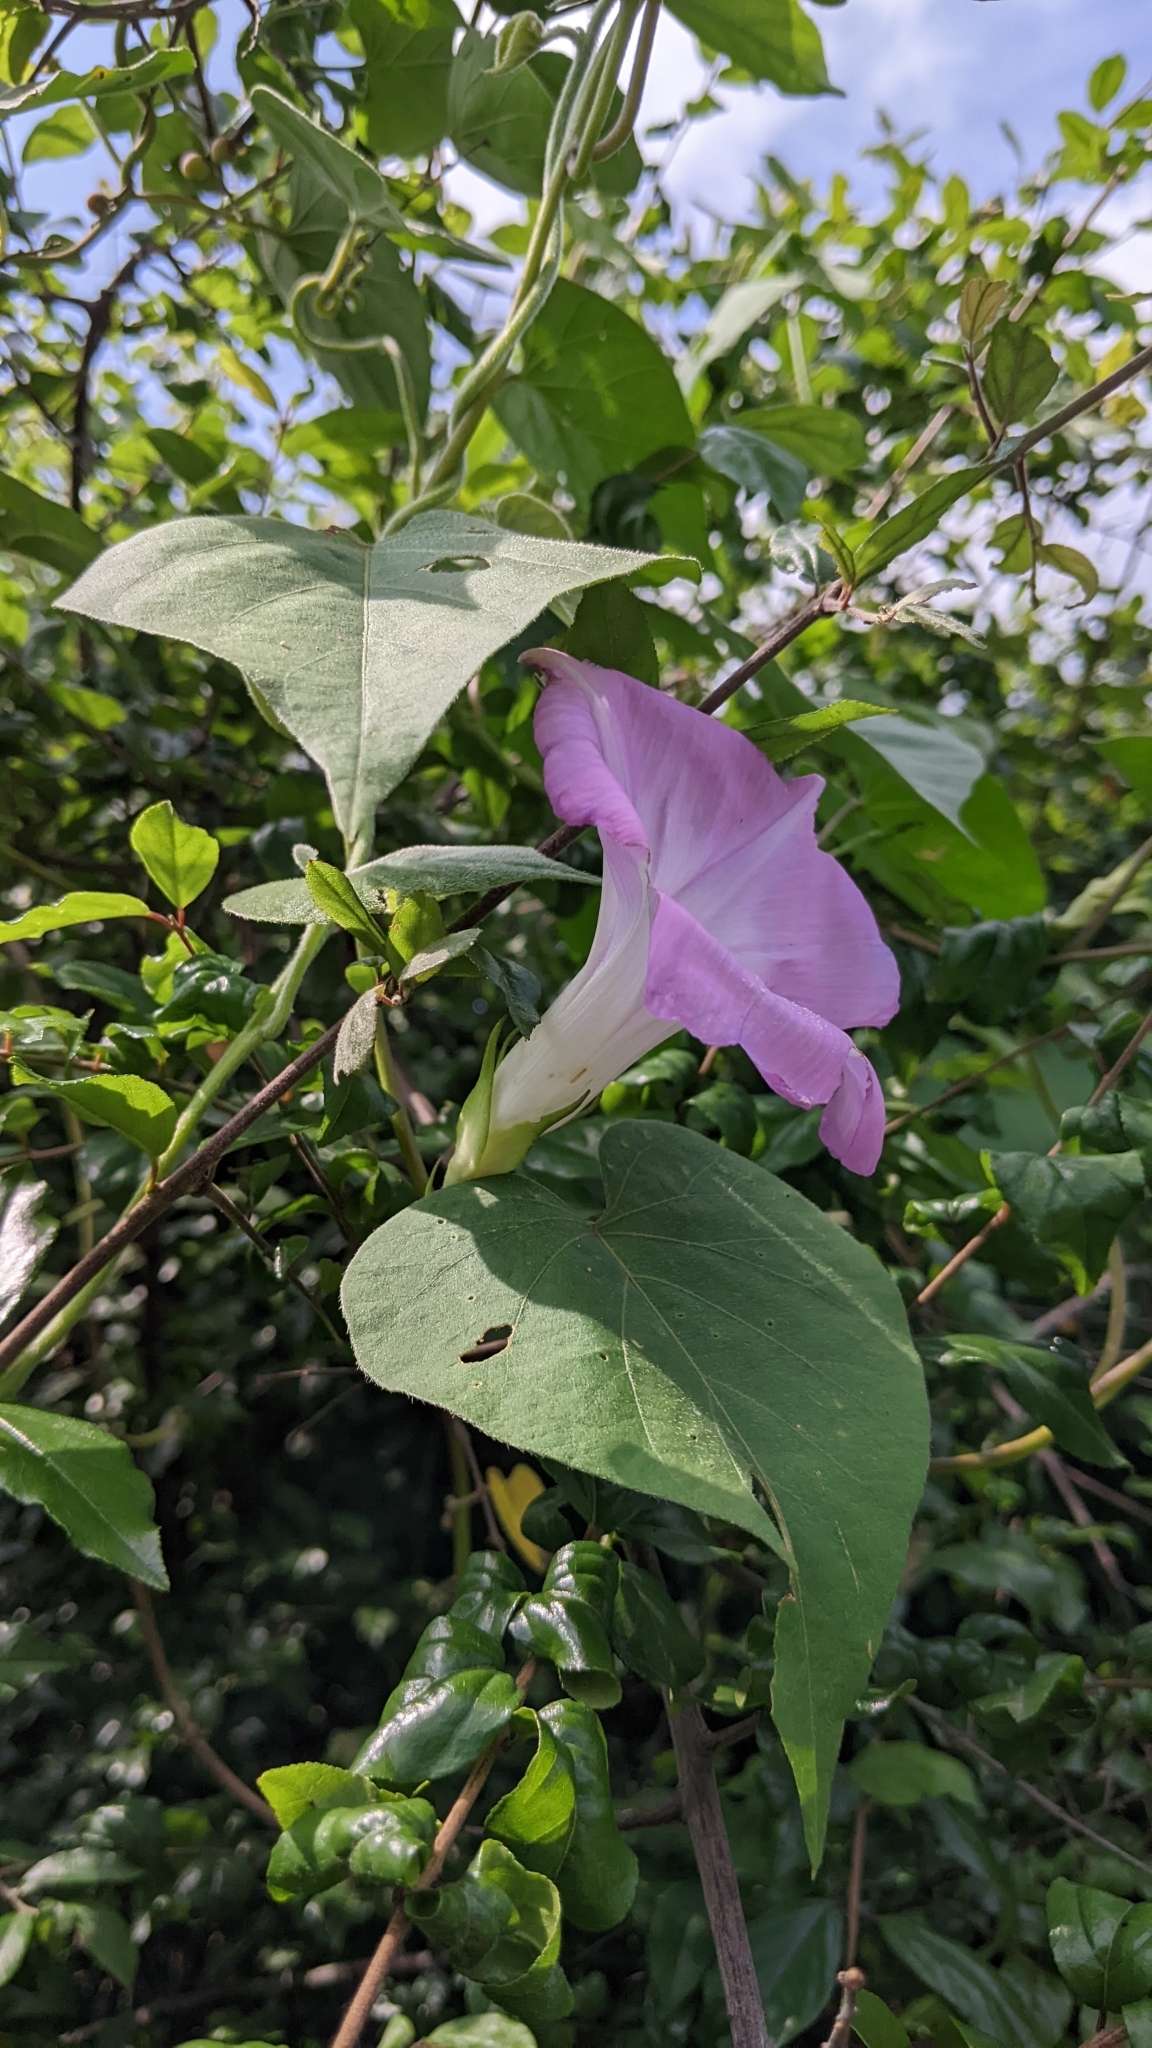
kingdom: Plantae
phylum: Tracheophyta
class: Magnoliopsida
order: Solanales
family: Convolvulaceae
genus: Ipomoea
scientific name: Ipomoea indica
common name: Blue dawnflower
